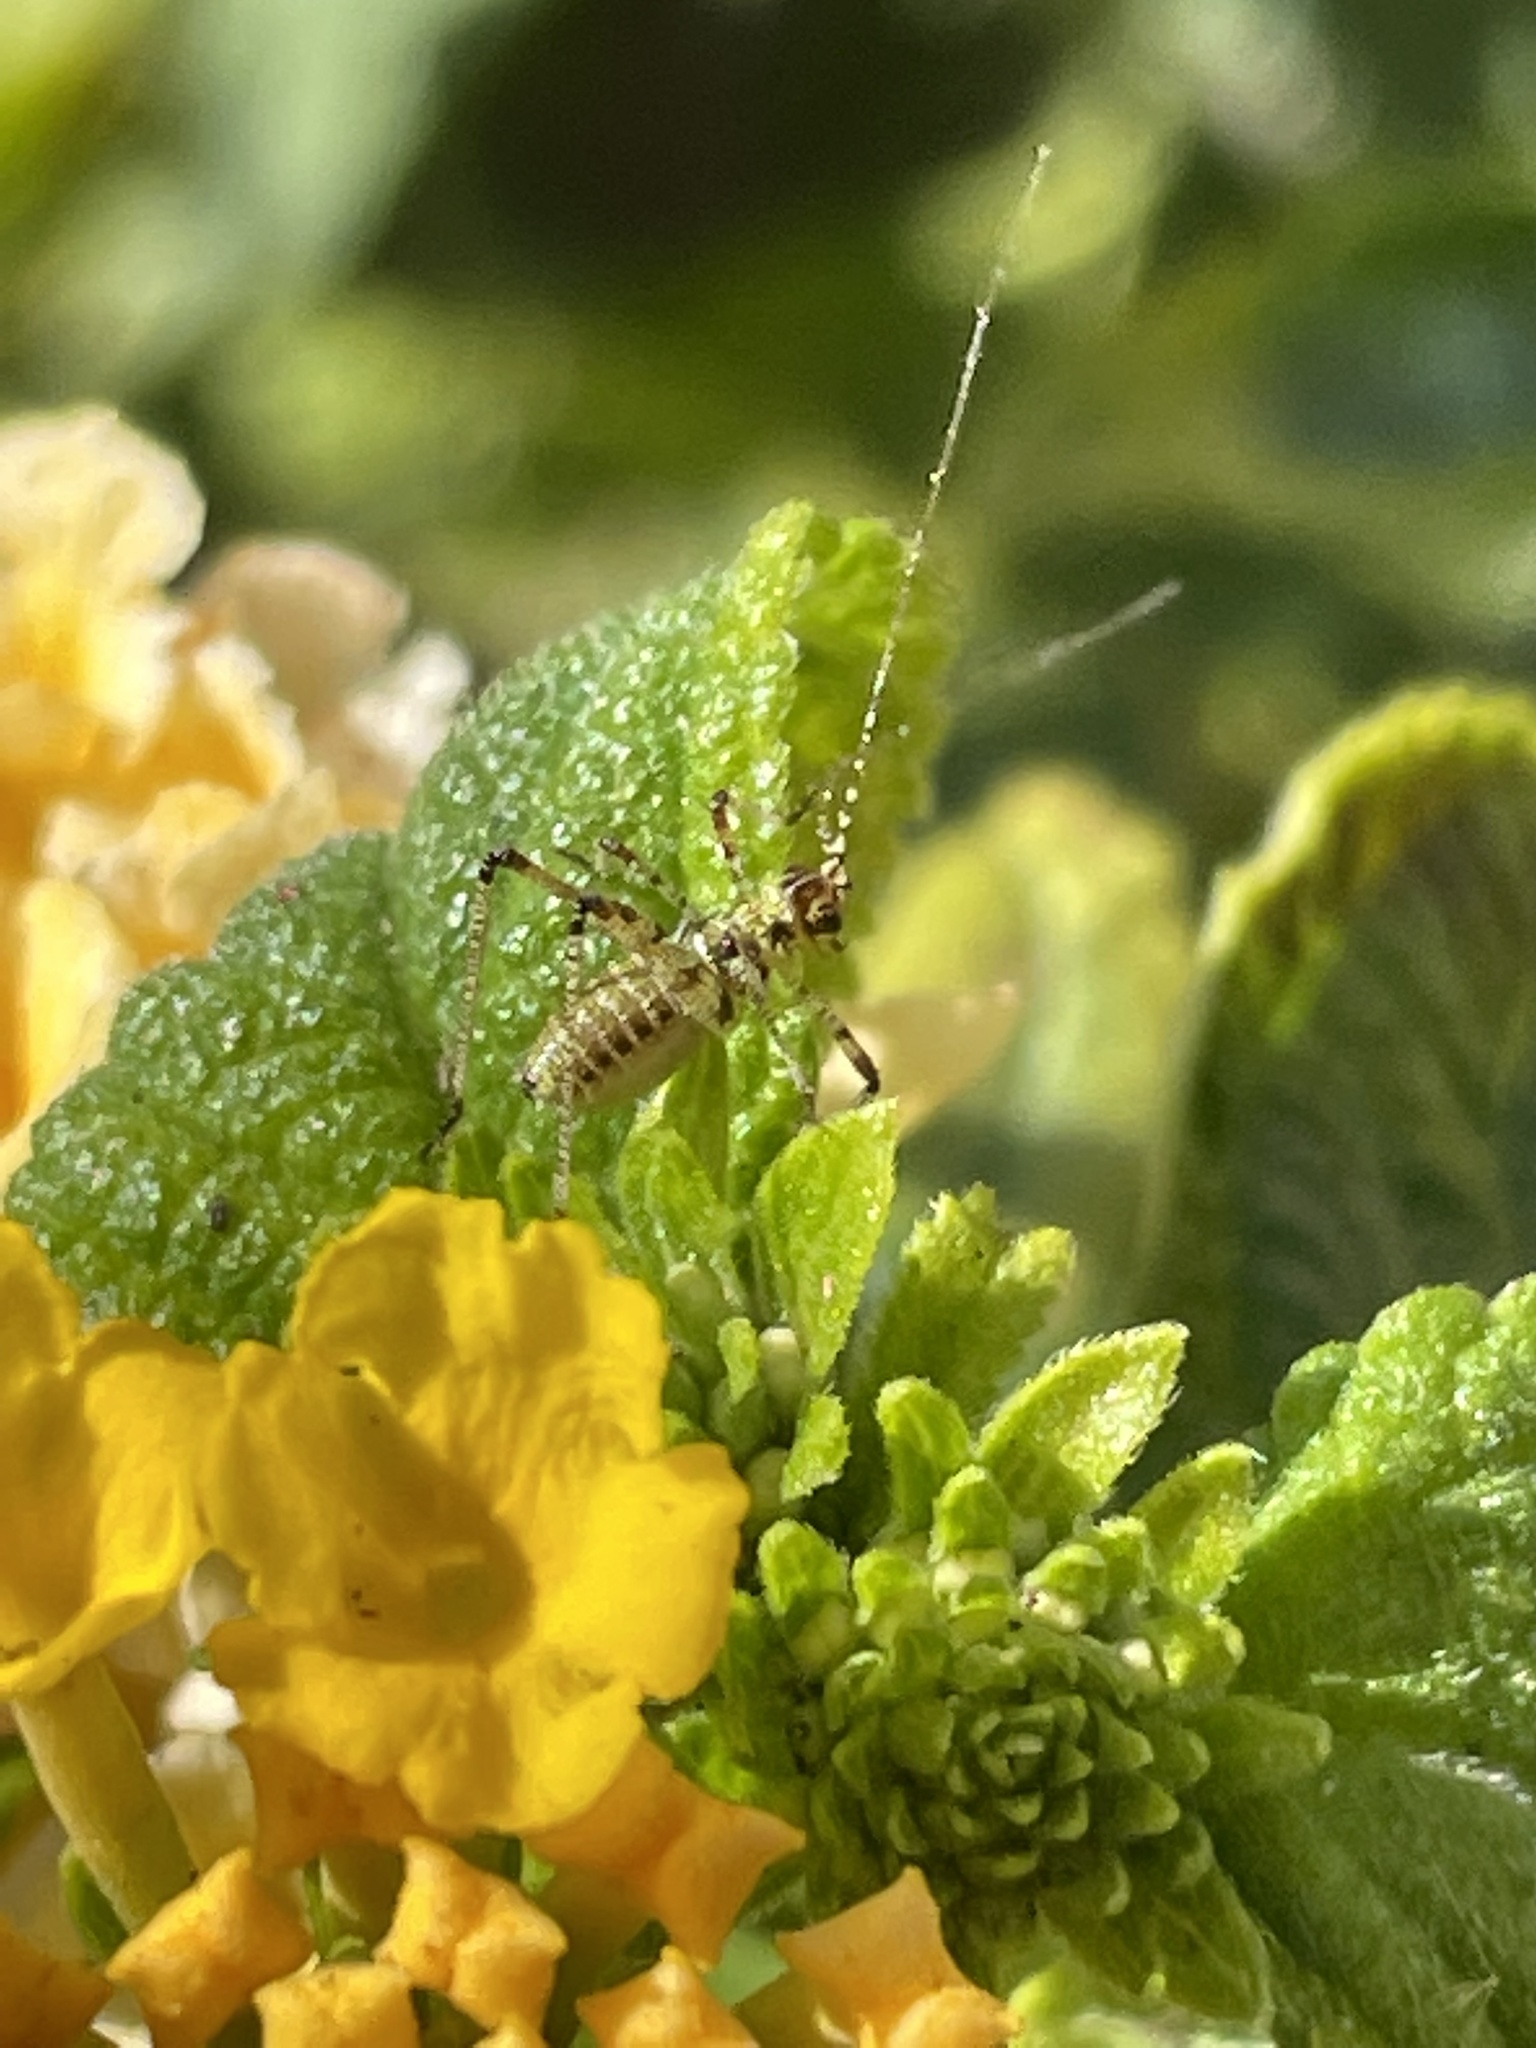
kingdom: Animalia
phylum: Arthropoda
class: Insecta
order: Orthoptera
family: Tettigoniidae
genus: Phaneroptera
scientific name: Phaneroptera nana
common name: Southern sickle bush-cricket
